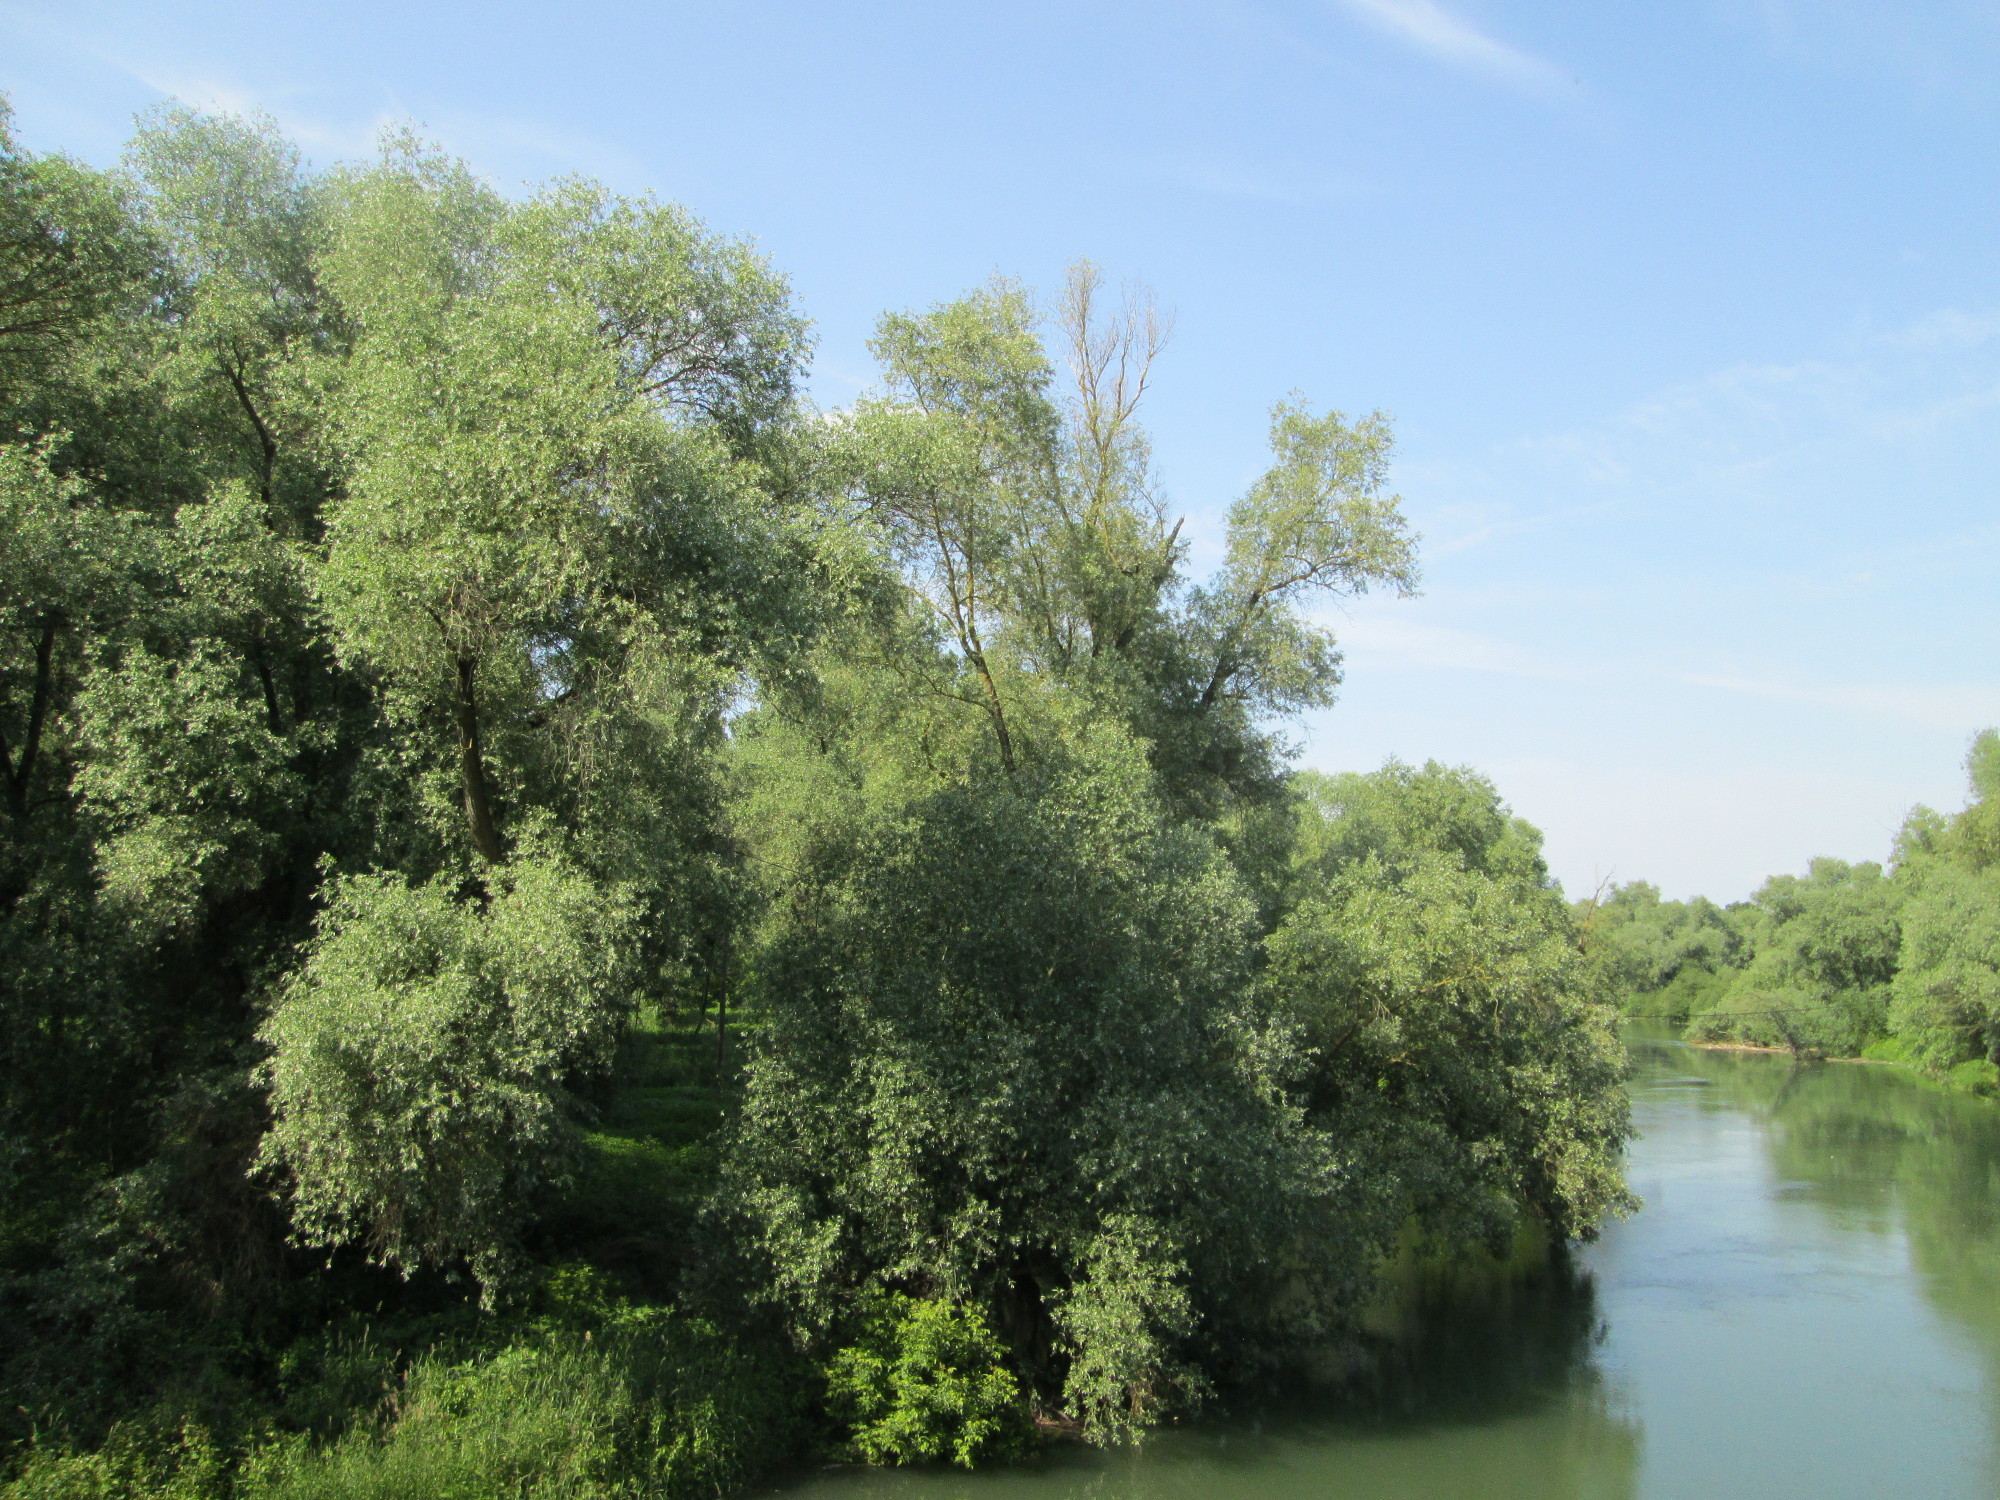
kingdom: Plantae
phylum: Tracheophyta
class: Magnoliopsida
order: Malpighiales
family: Salicaceae
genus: Salix
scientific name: Salix alba
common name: White willow
